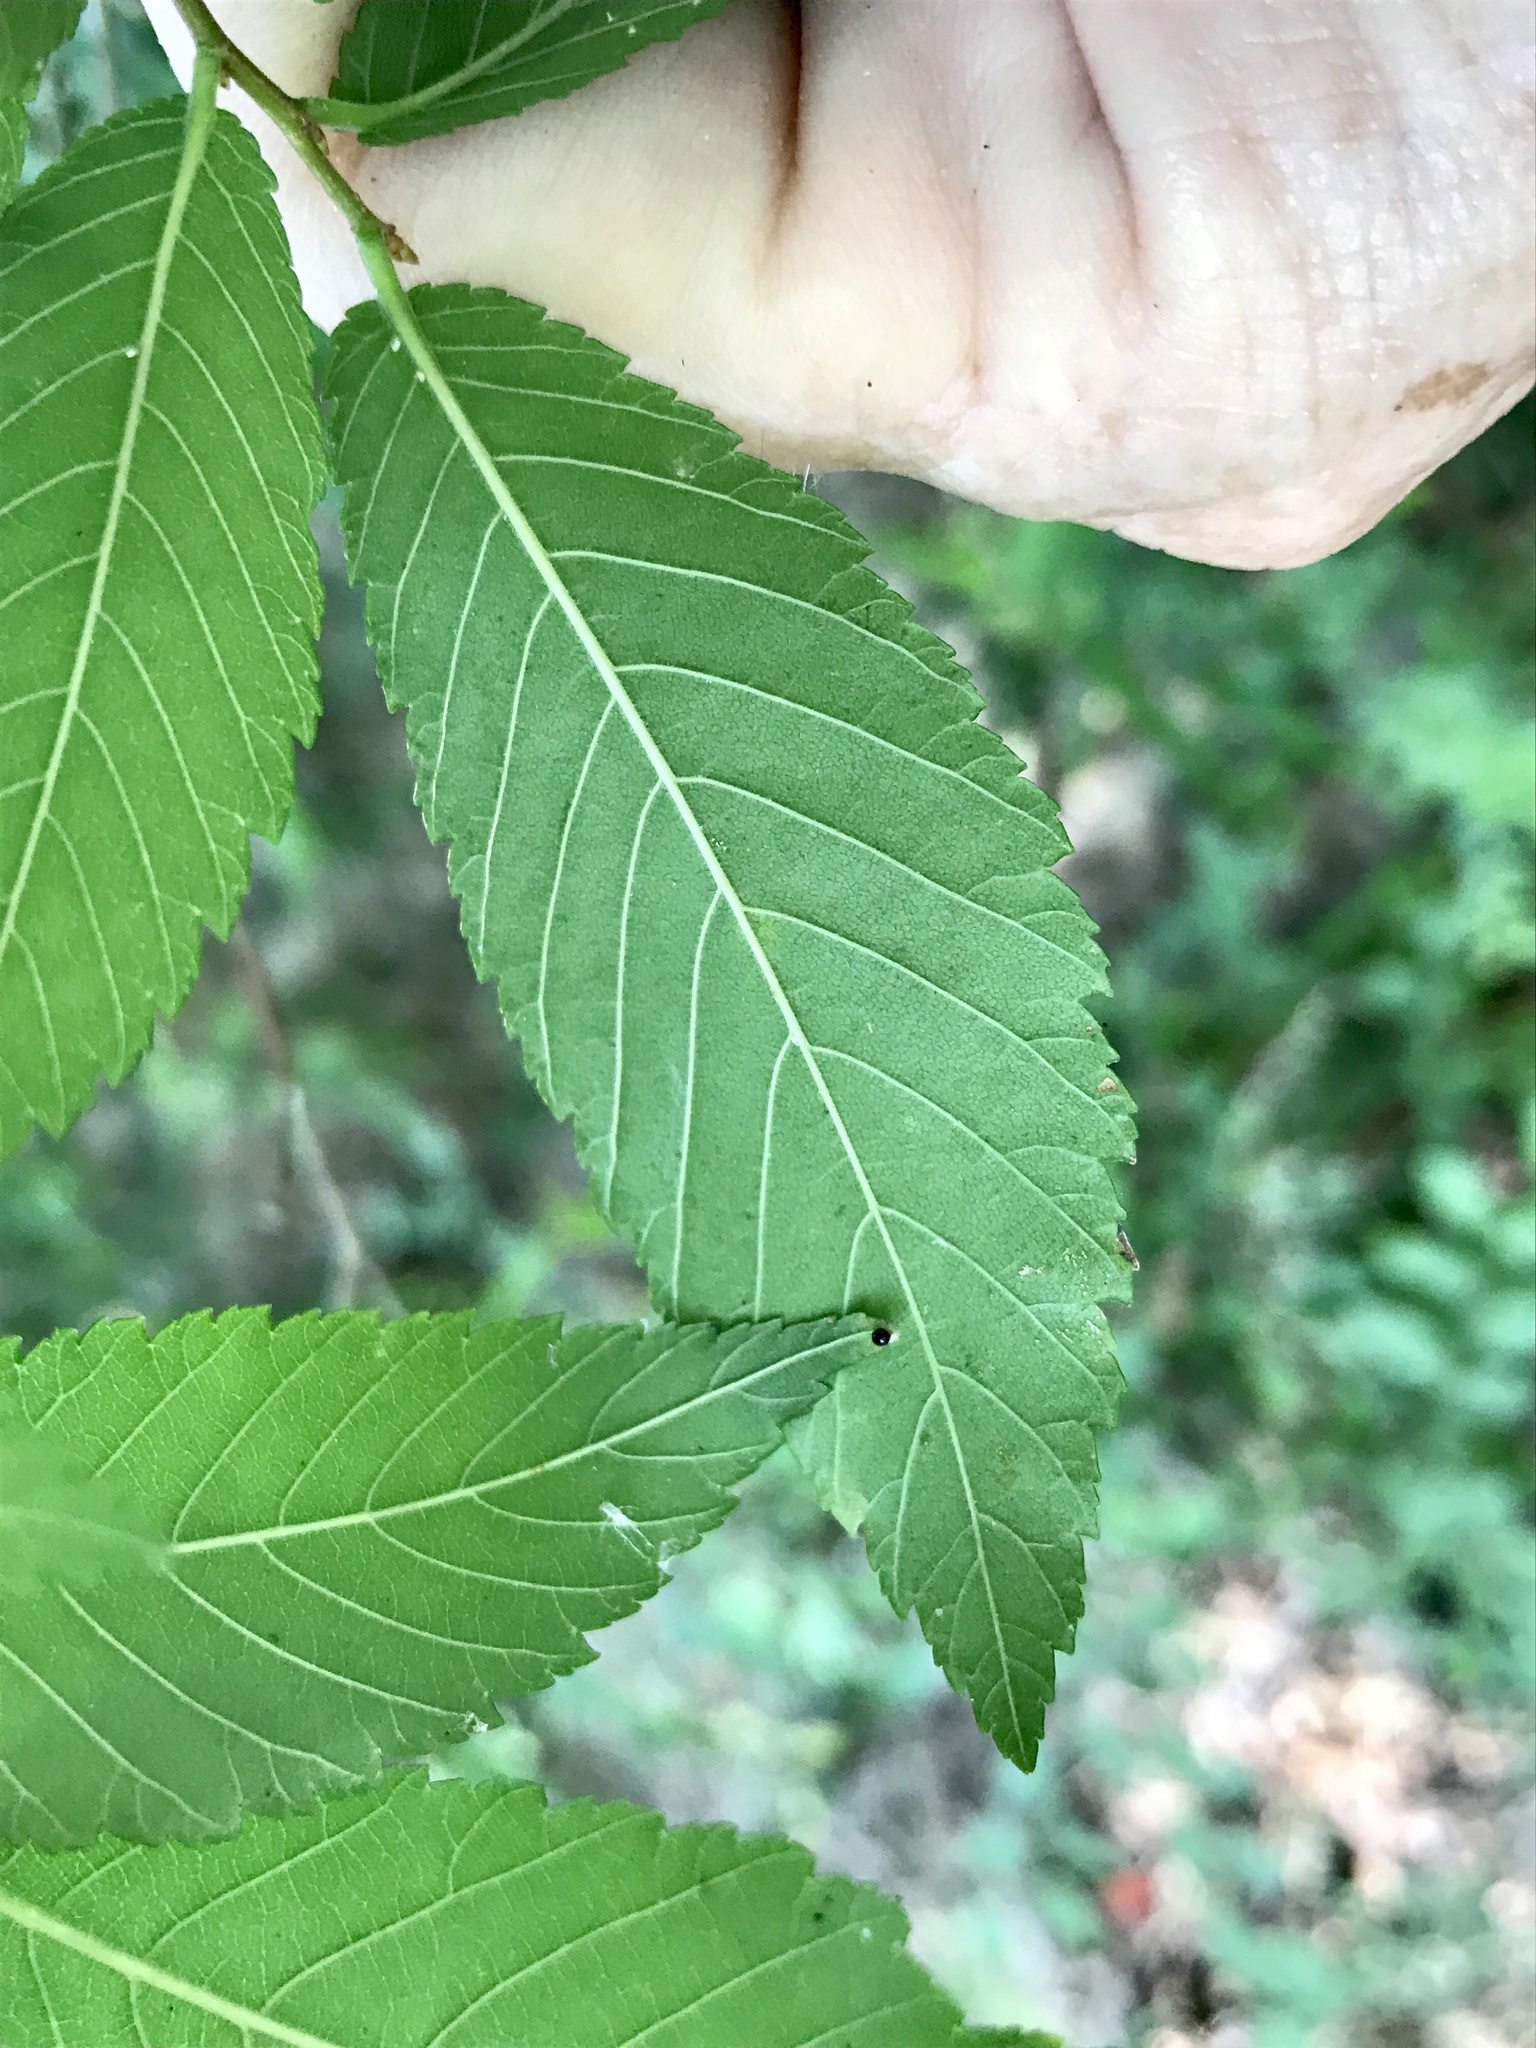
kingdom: Plantae
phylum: Tracheophyta
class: Magnoliopsida
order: Rosales
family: Ulmaceae
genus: Ulmus
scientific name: Ulmus americana
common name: American elm
